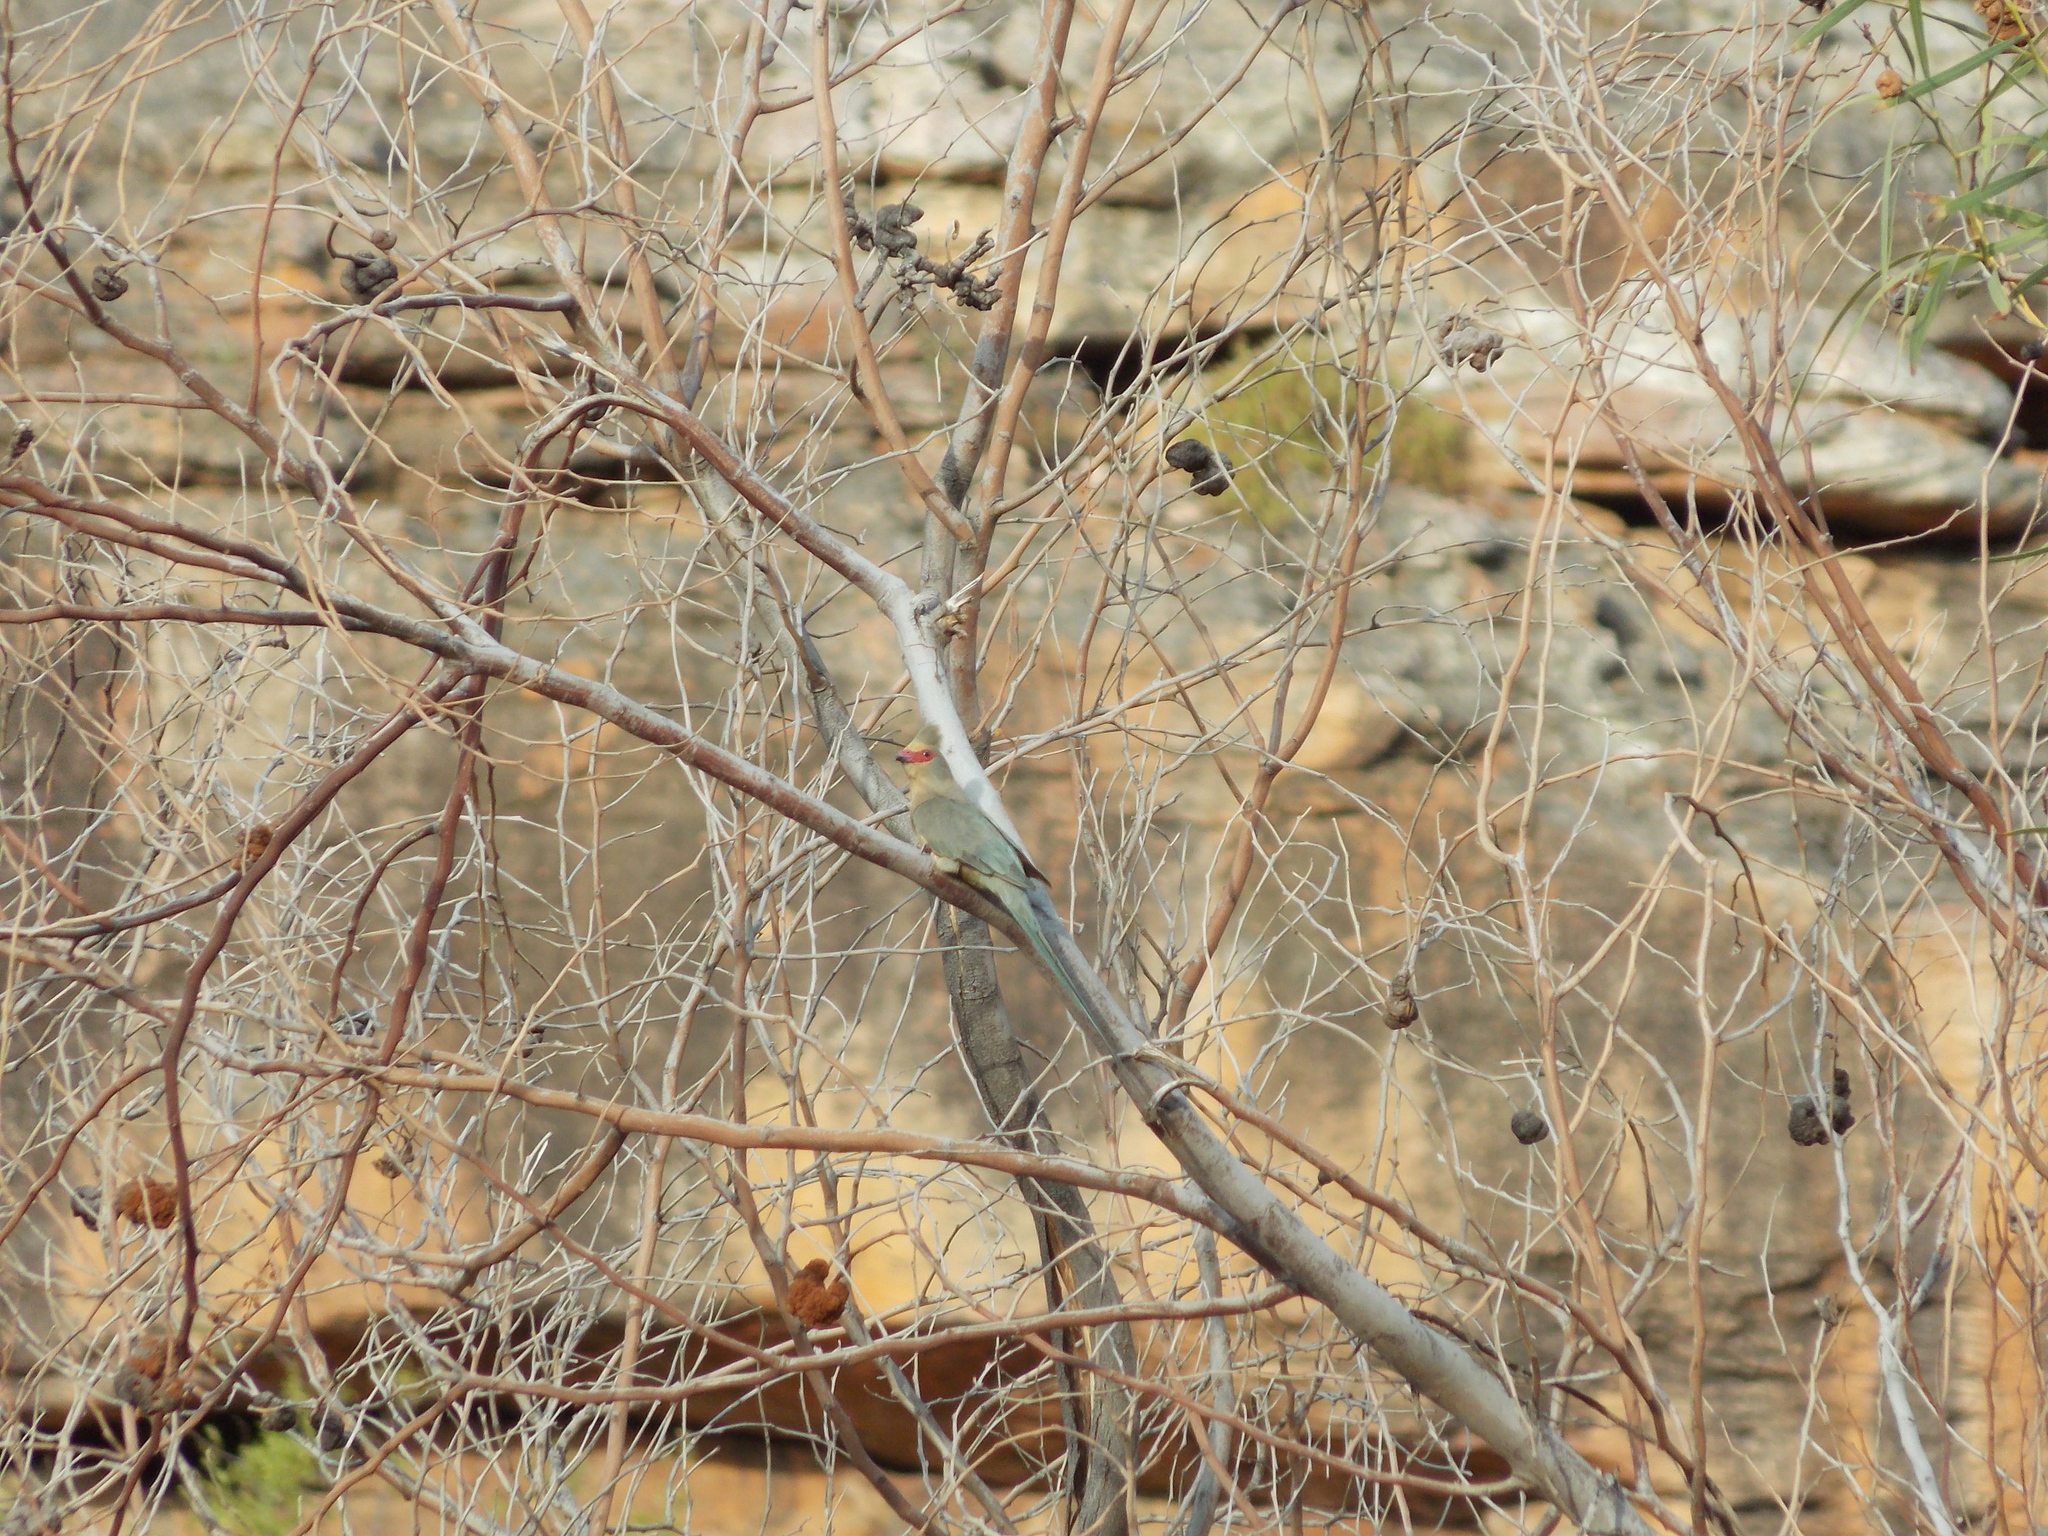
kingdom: Animalia
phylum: Chordata
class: Aves
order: Coliiformes
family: Coliidae
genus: Urocolius
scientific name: Urocolius indicus
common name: Red-faced mousebird
